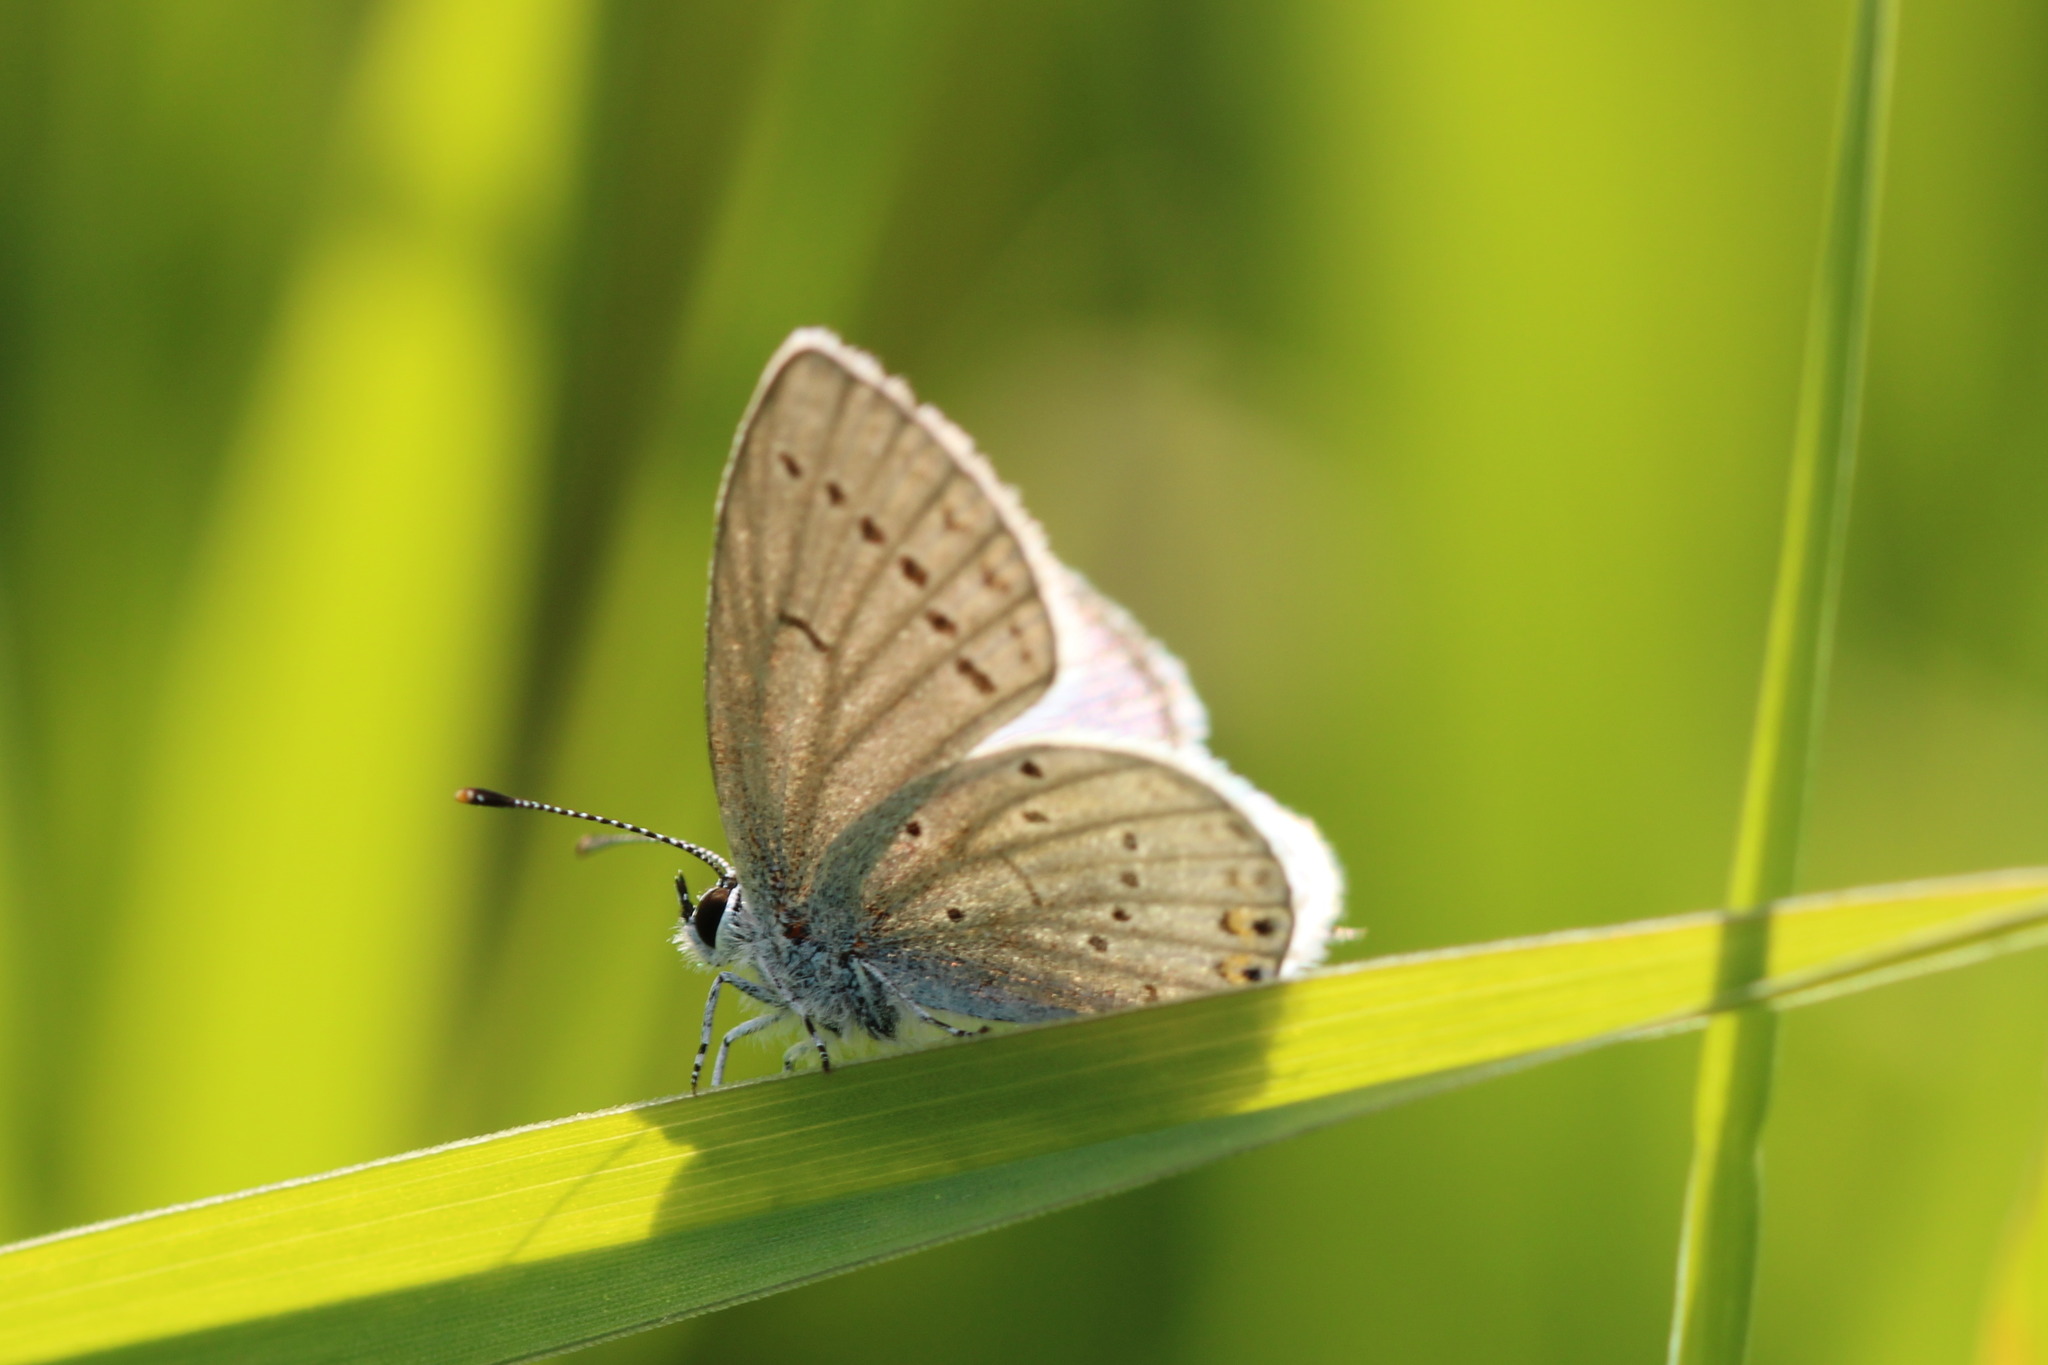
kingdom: Animalia
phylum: Arthropoda
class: Insecta
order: Lepidoptera
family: Lycaenidae
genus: Elkalyce
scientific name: Elkalyce argiades
